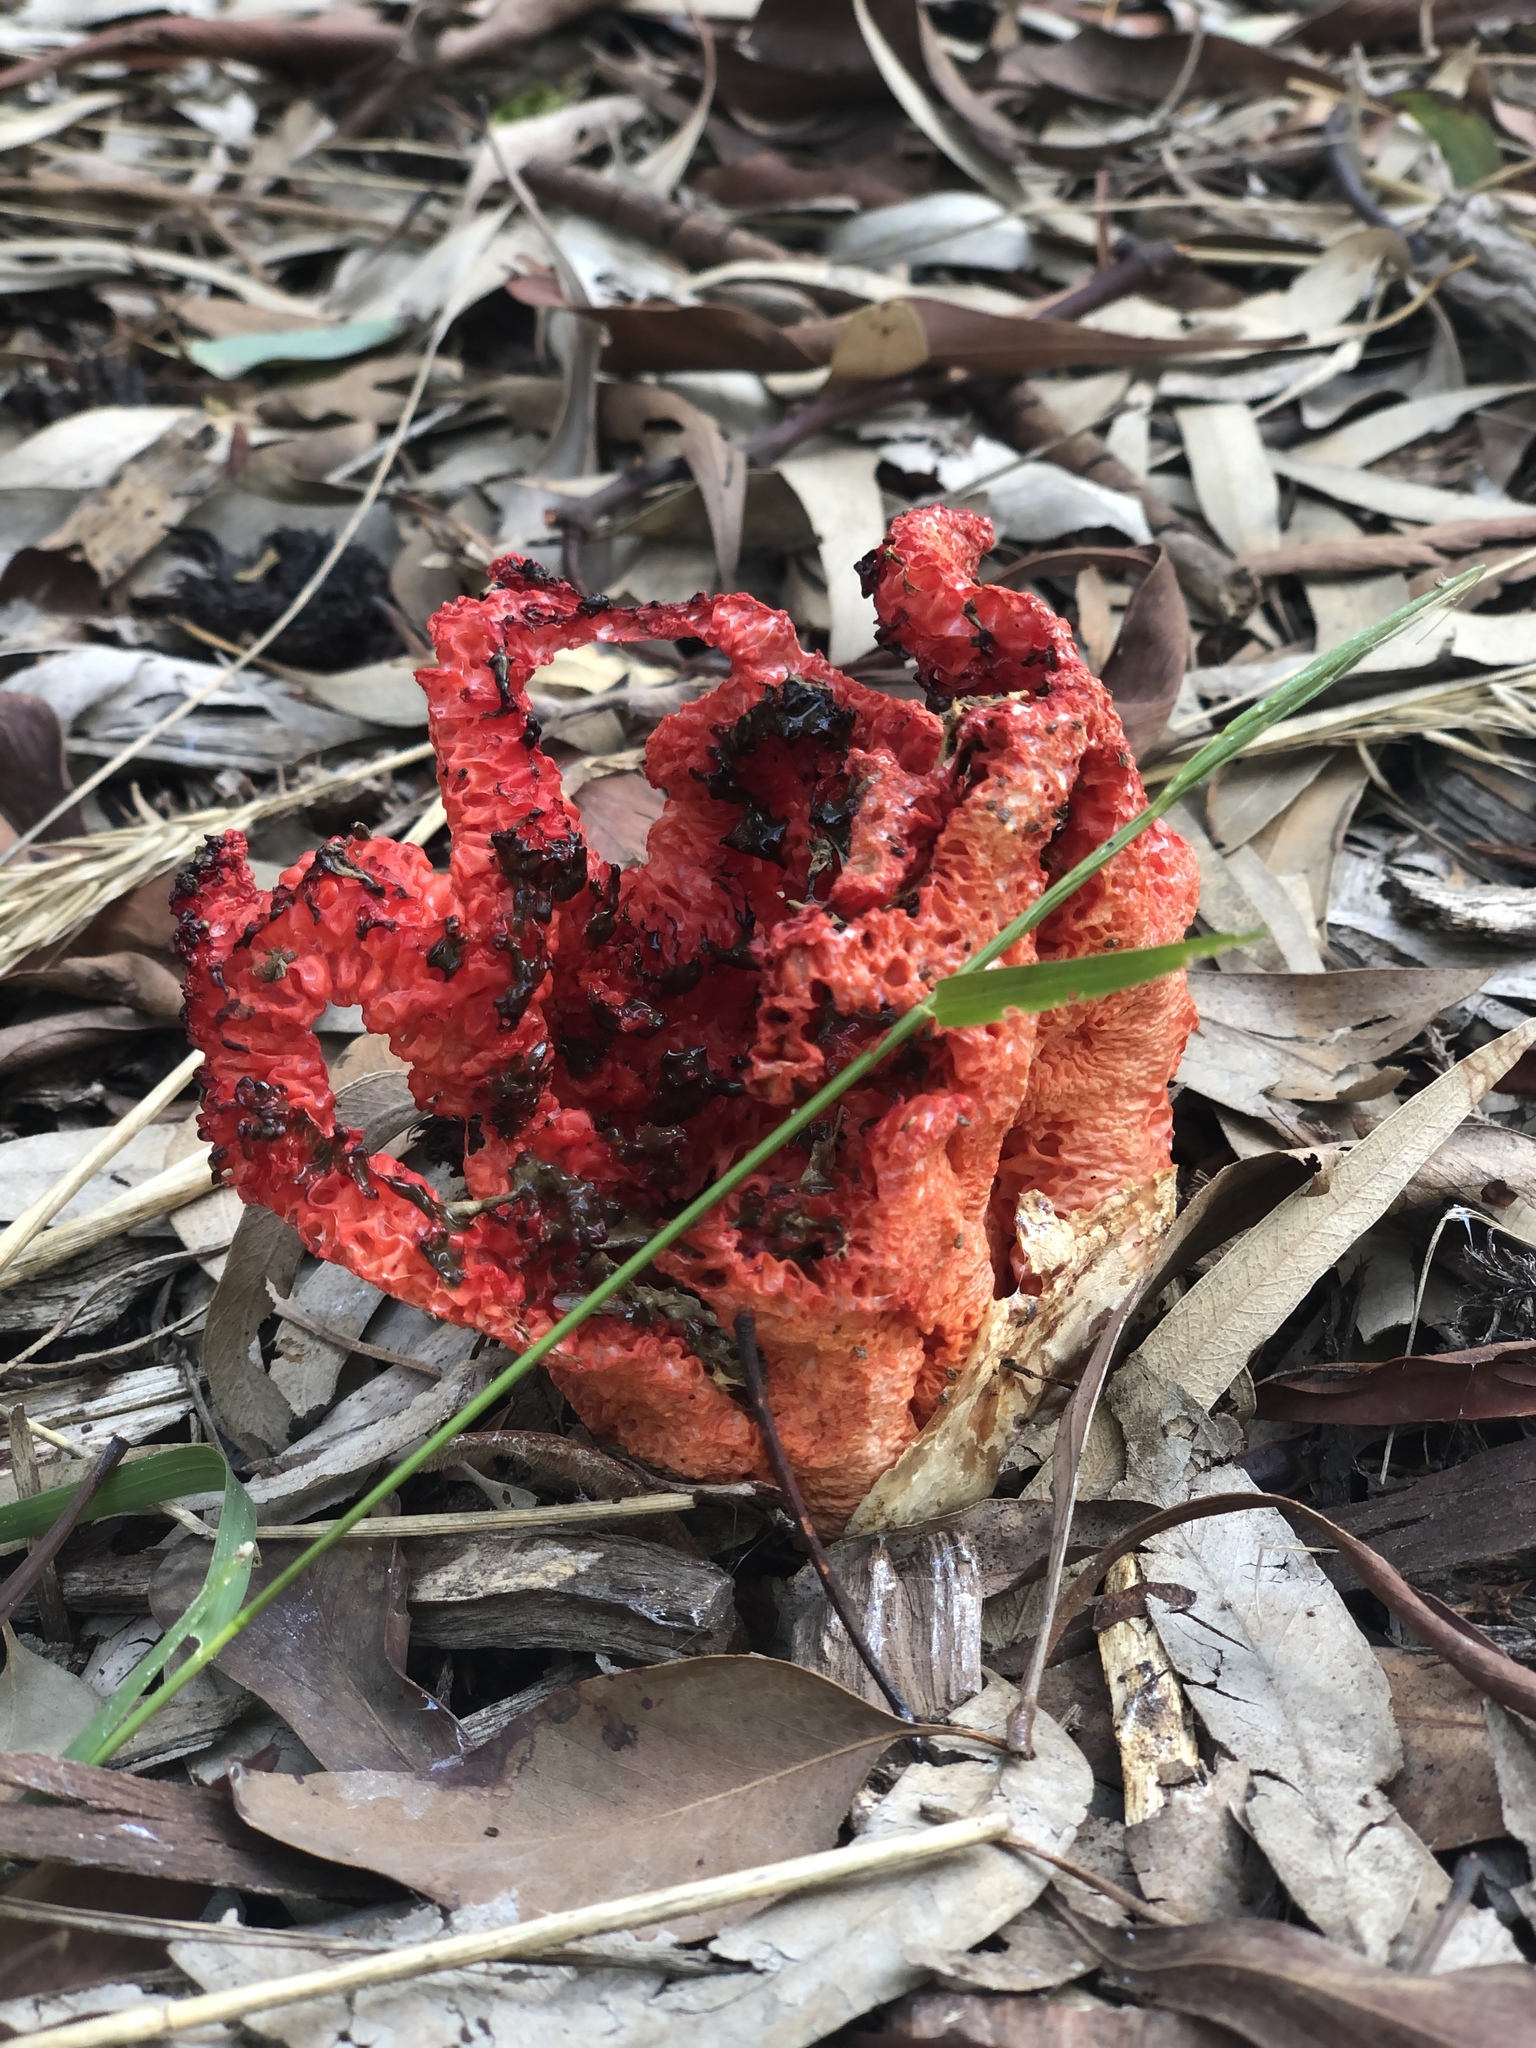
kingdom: Fungi
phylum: Basidiomycota
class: Agaricomycetes
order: Phallales
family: Phallaceae
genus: Clathrus
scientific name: Clathrus ruber
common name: Red cage
